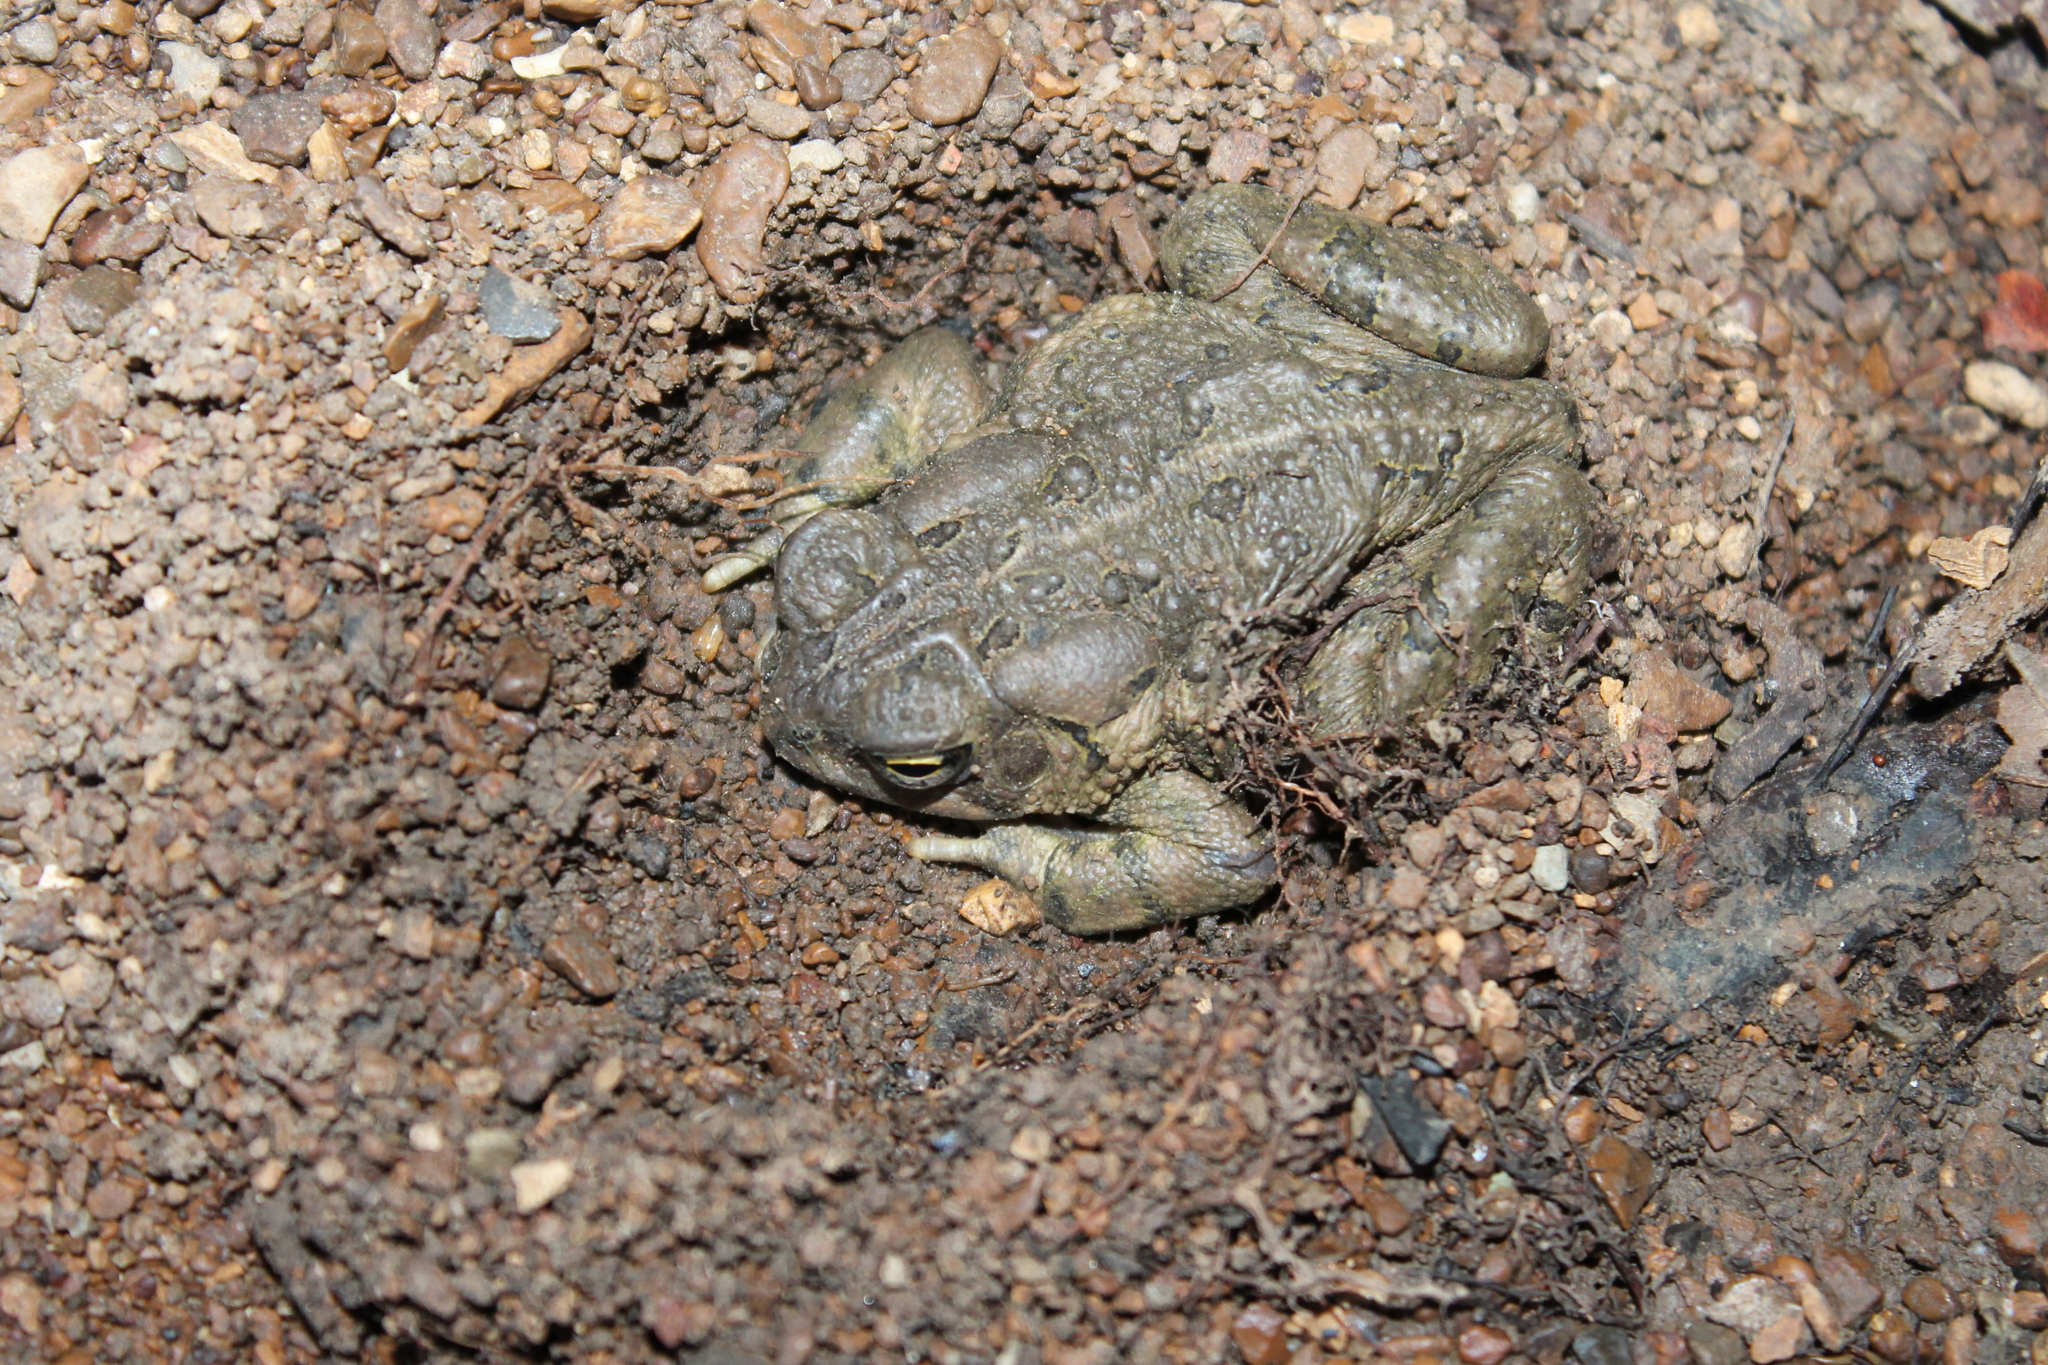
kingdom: Animalia
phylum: Chordata
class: Amphibia
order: Anura
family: Bufonidae
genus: Anaxyrus
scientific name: Anaxyrus fowleri
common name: Fowler's toad
